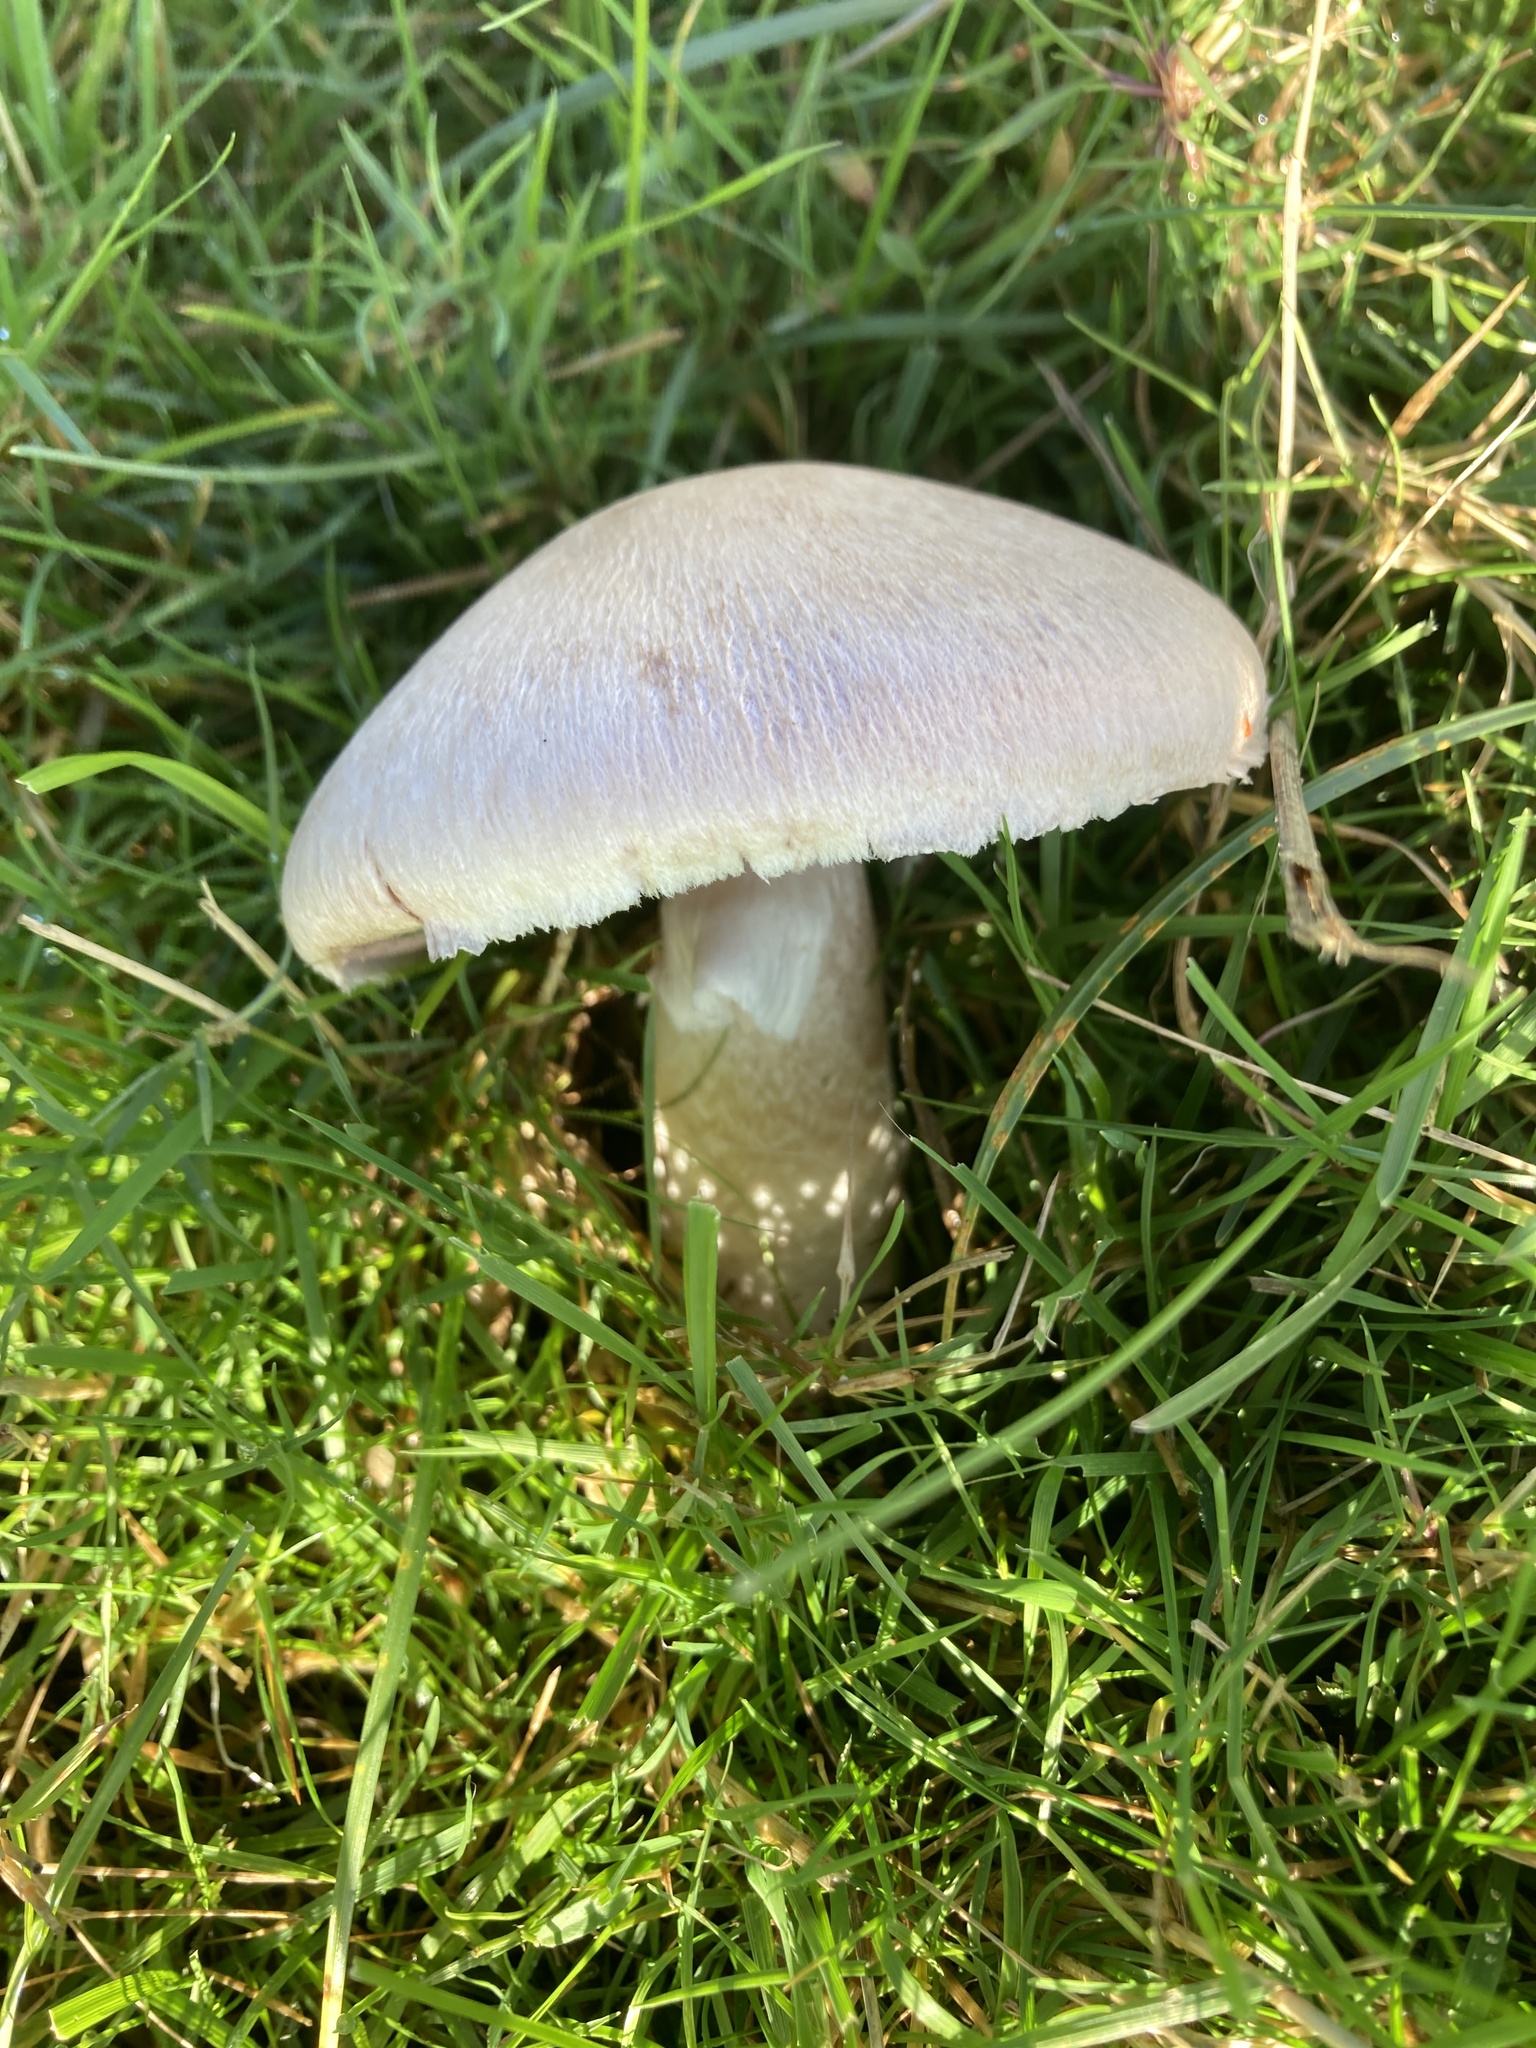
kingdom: Fungi
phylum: Basidiomycota
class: Agaricomycetes
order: Agaricales
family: Agaricaceae
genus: Agaricus
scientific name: Agaricus campestris
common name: Field mushroom
